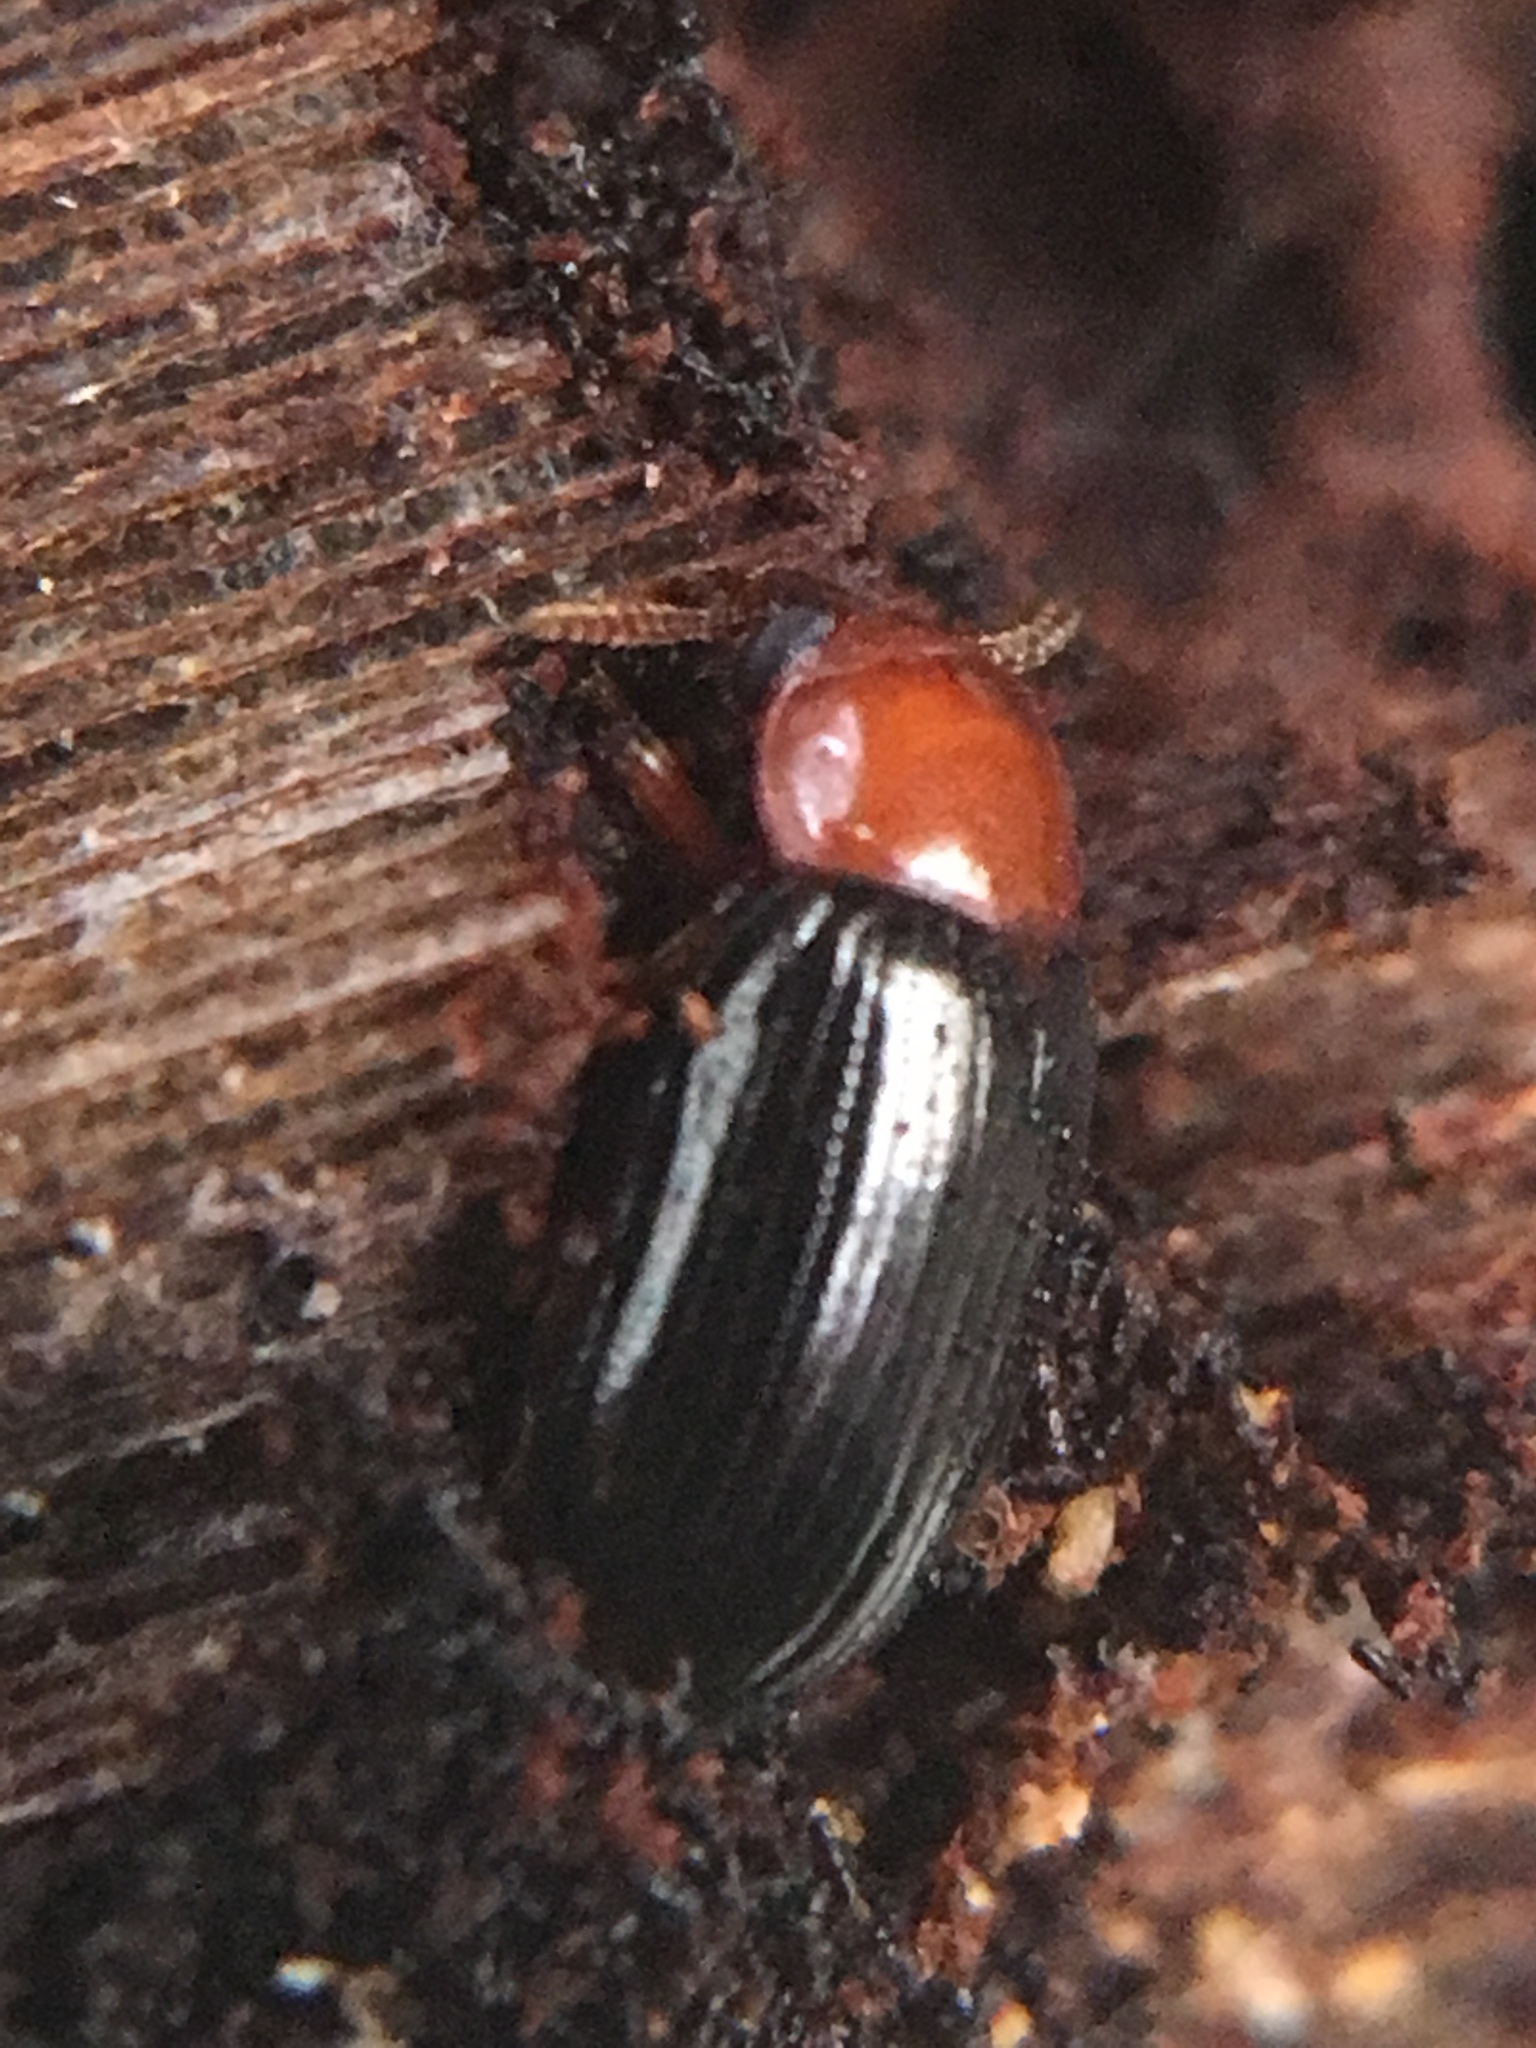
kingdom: Animalia
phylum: Arthropoda
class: Insecta
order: Coleoptera
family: Tenebrionidae
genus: Neomida
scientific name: Neomida haemorrhoidalis
